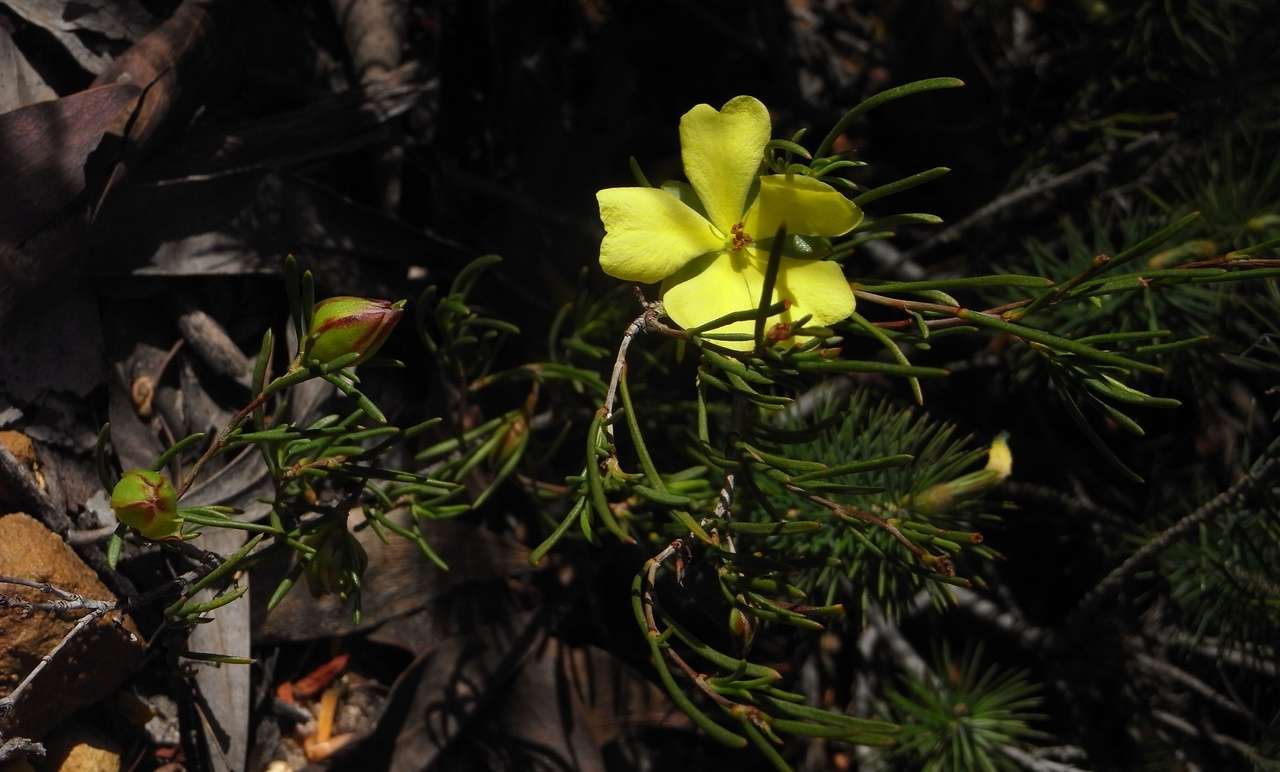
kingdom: Plantae
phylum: Tracheophyta
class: Magnoliopsida
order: Dilleniales
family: Dilleniaceae
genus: Hibbertia
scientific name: Hibbertia virgata
